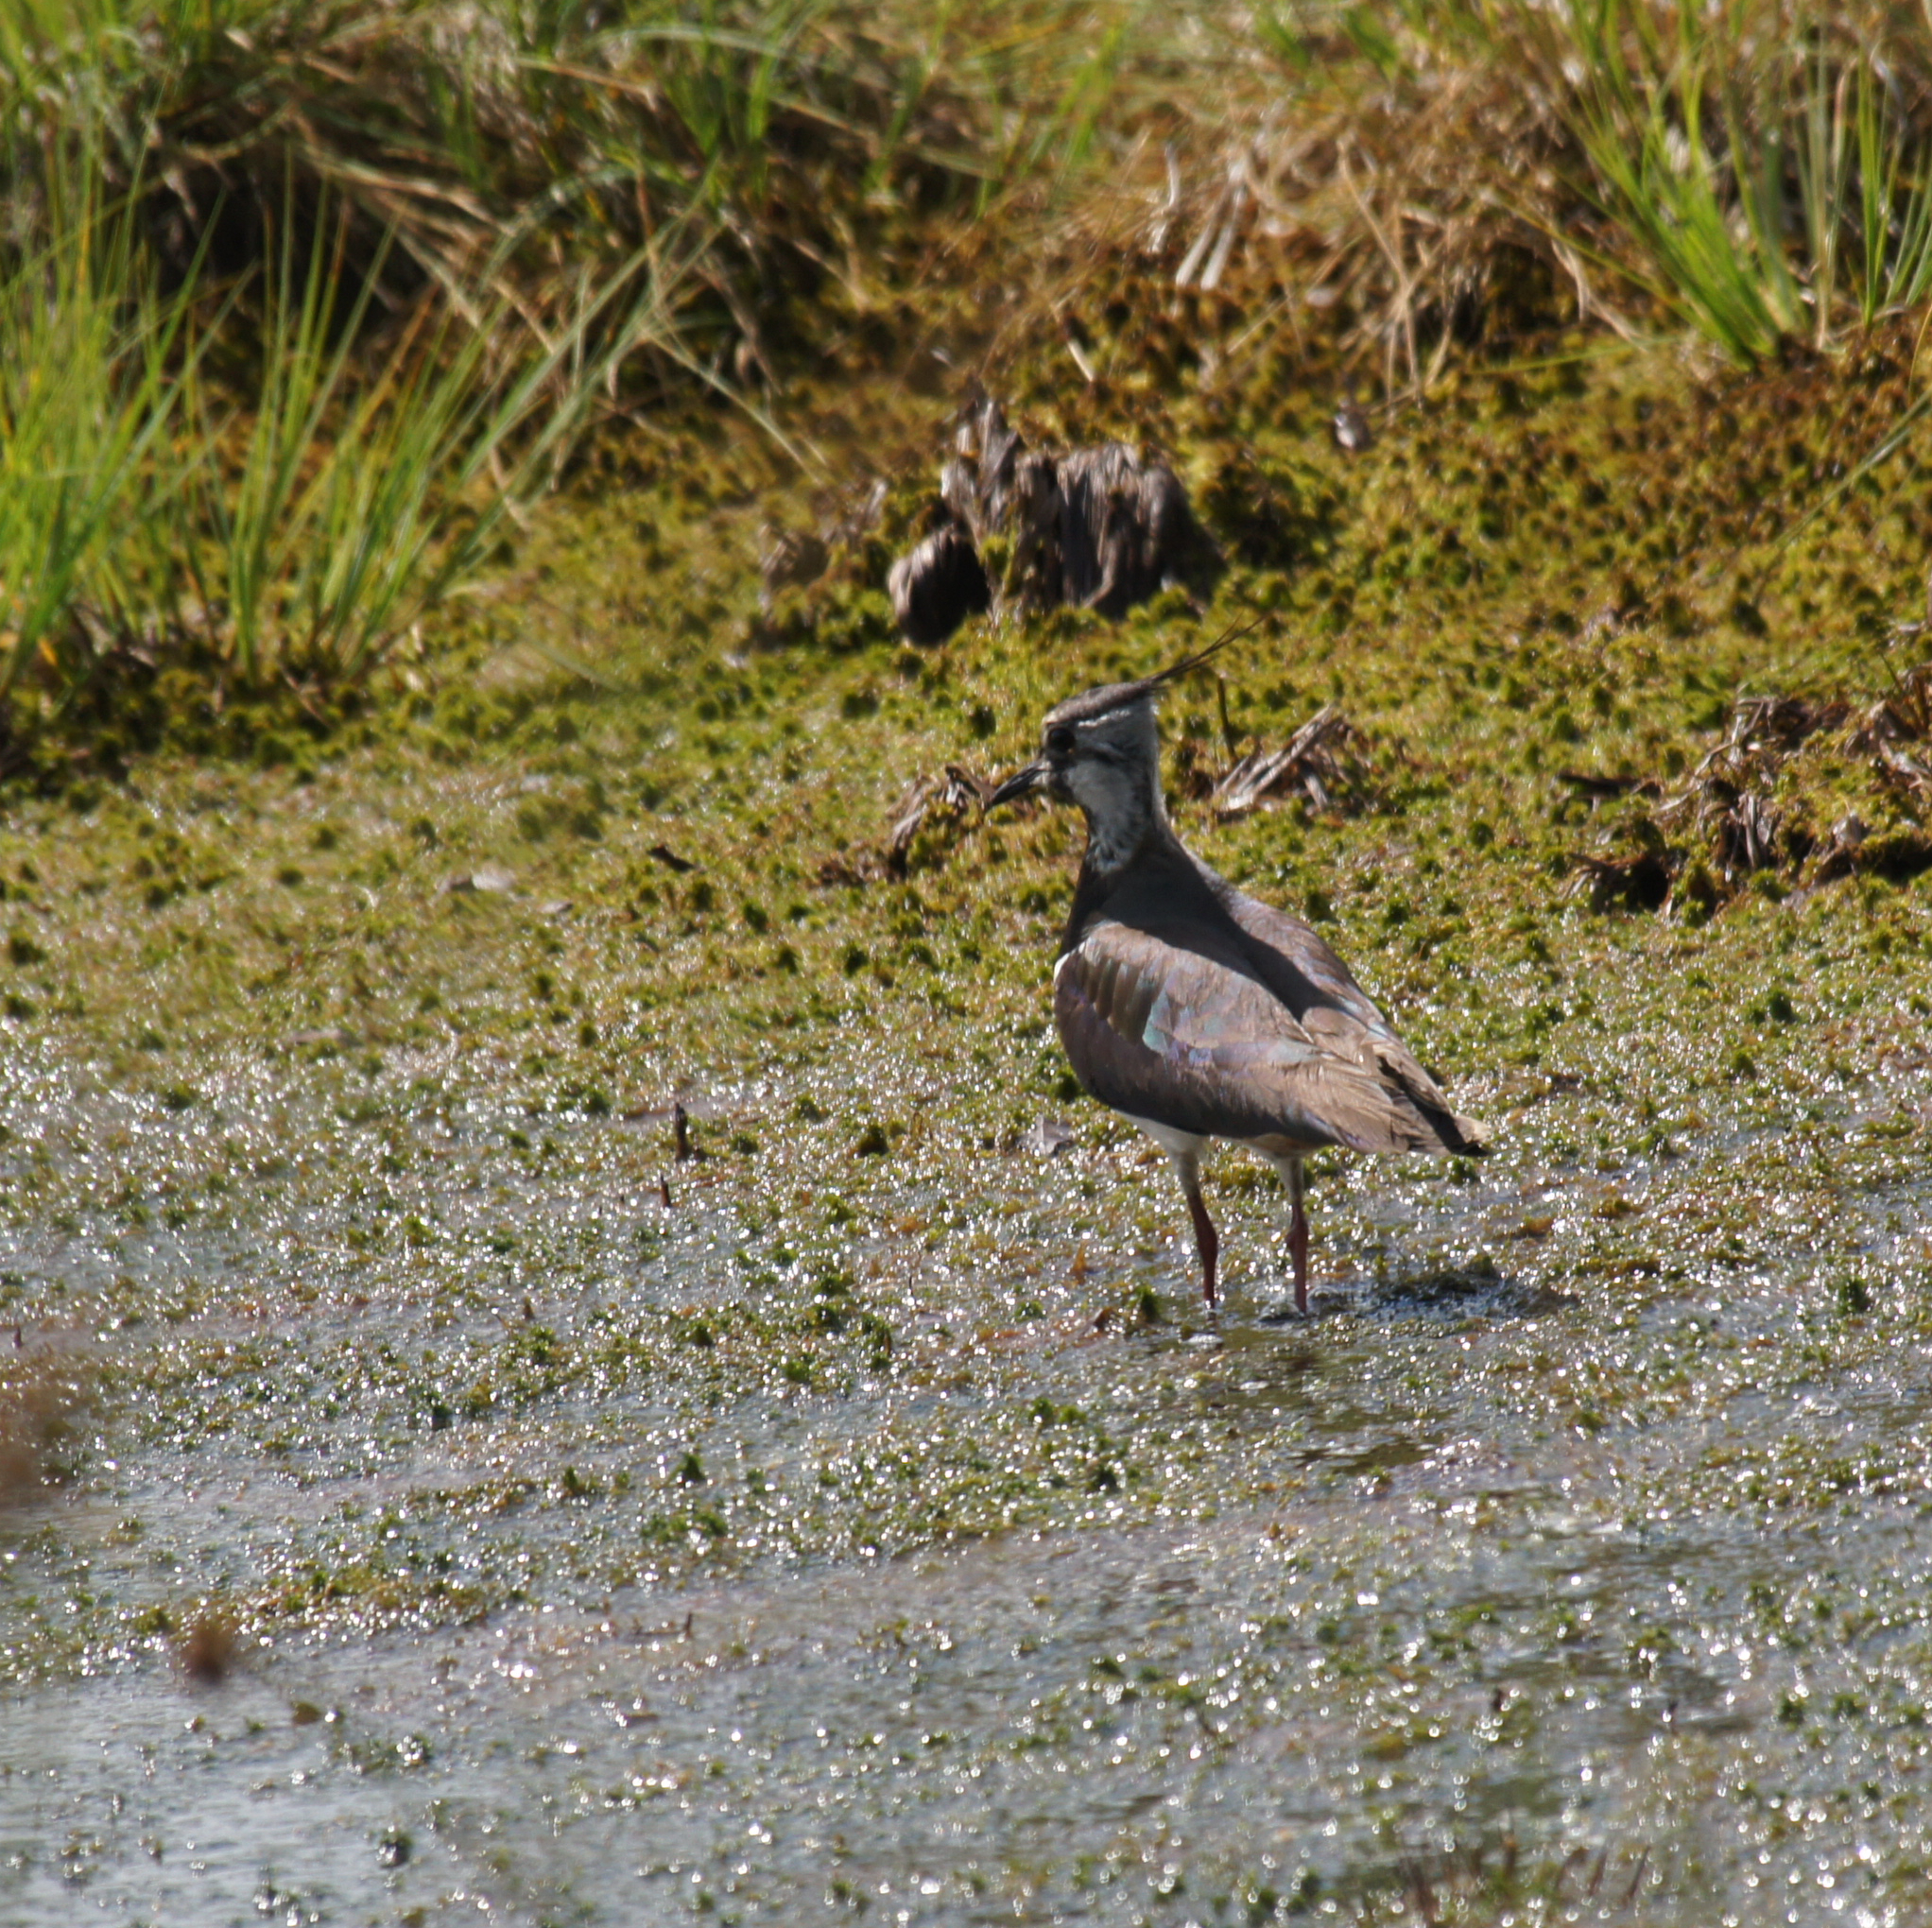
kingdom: Animalia
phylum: Chordata
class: Aves
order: Charadriiformes
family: Charadriidae
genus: Vanellus
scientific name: Vanellus vanellus
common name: Northern lapwing
